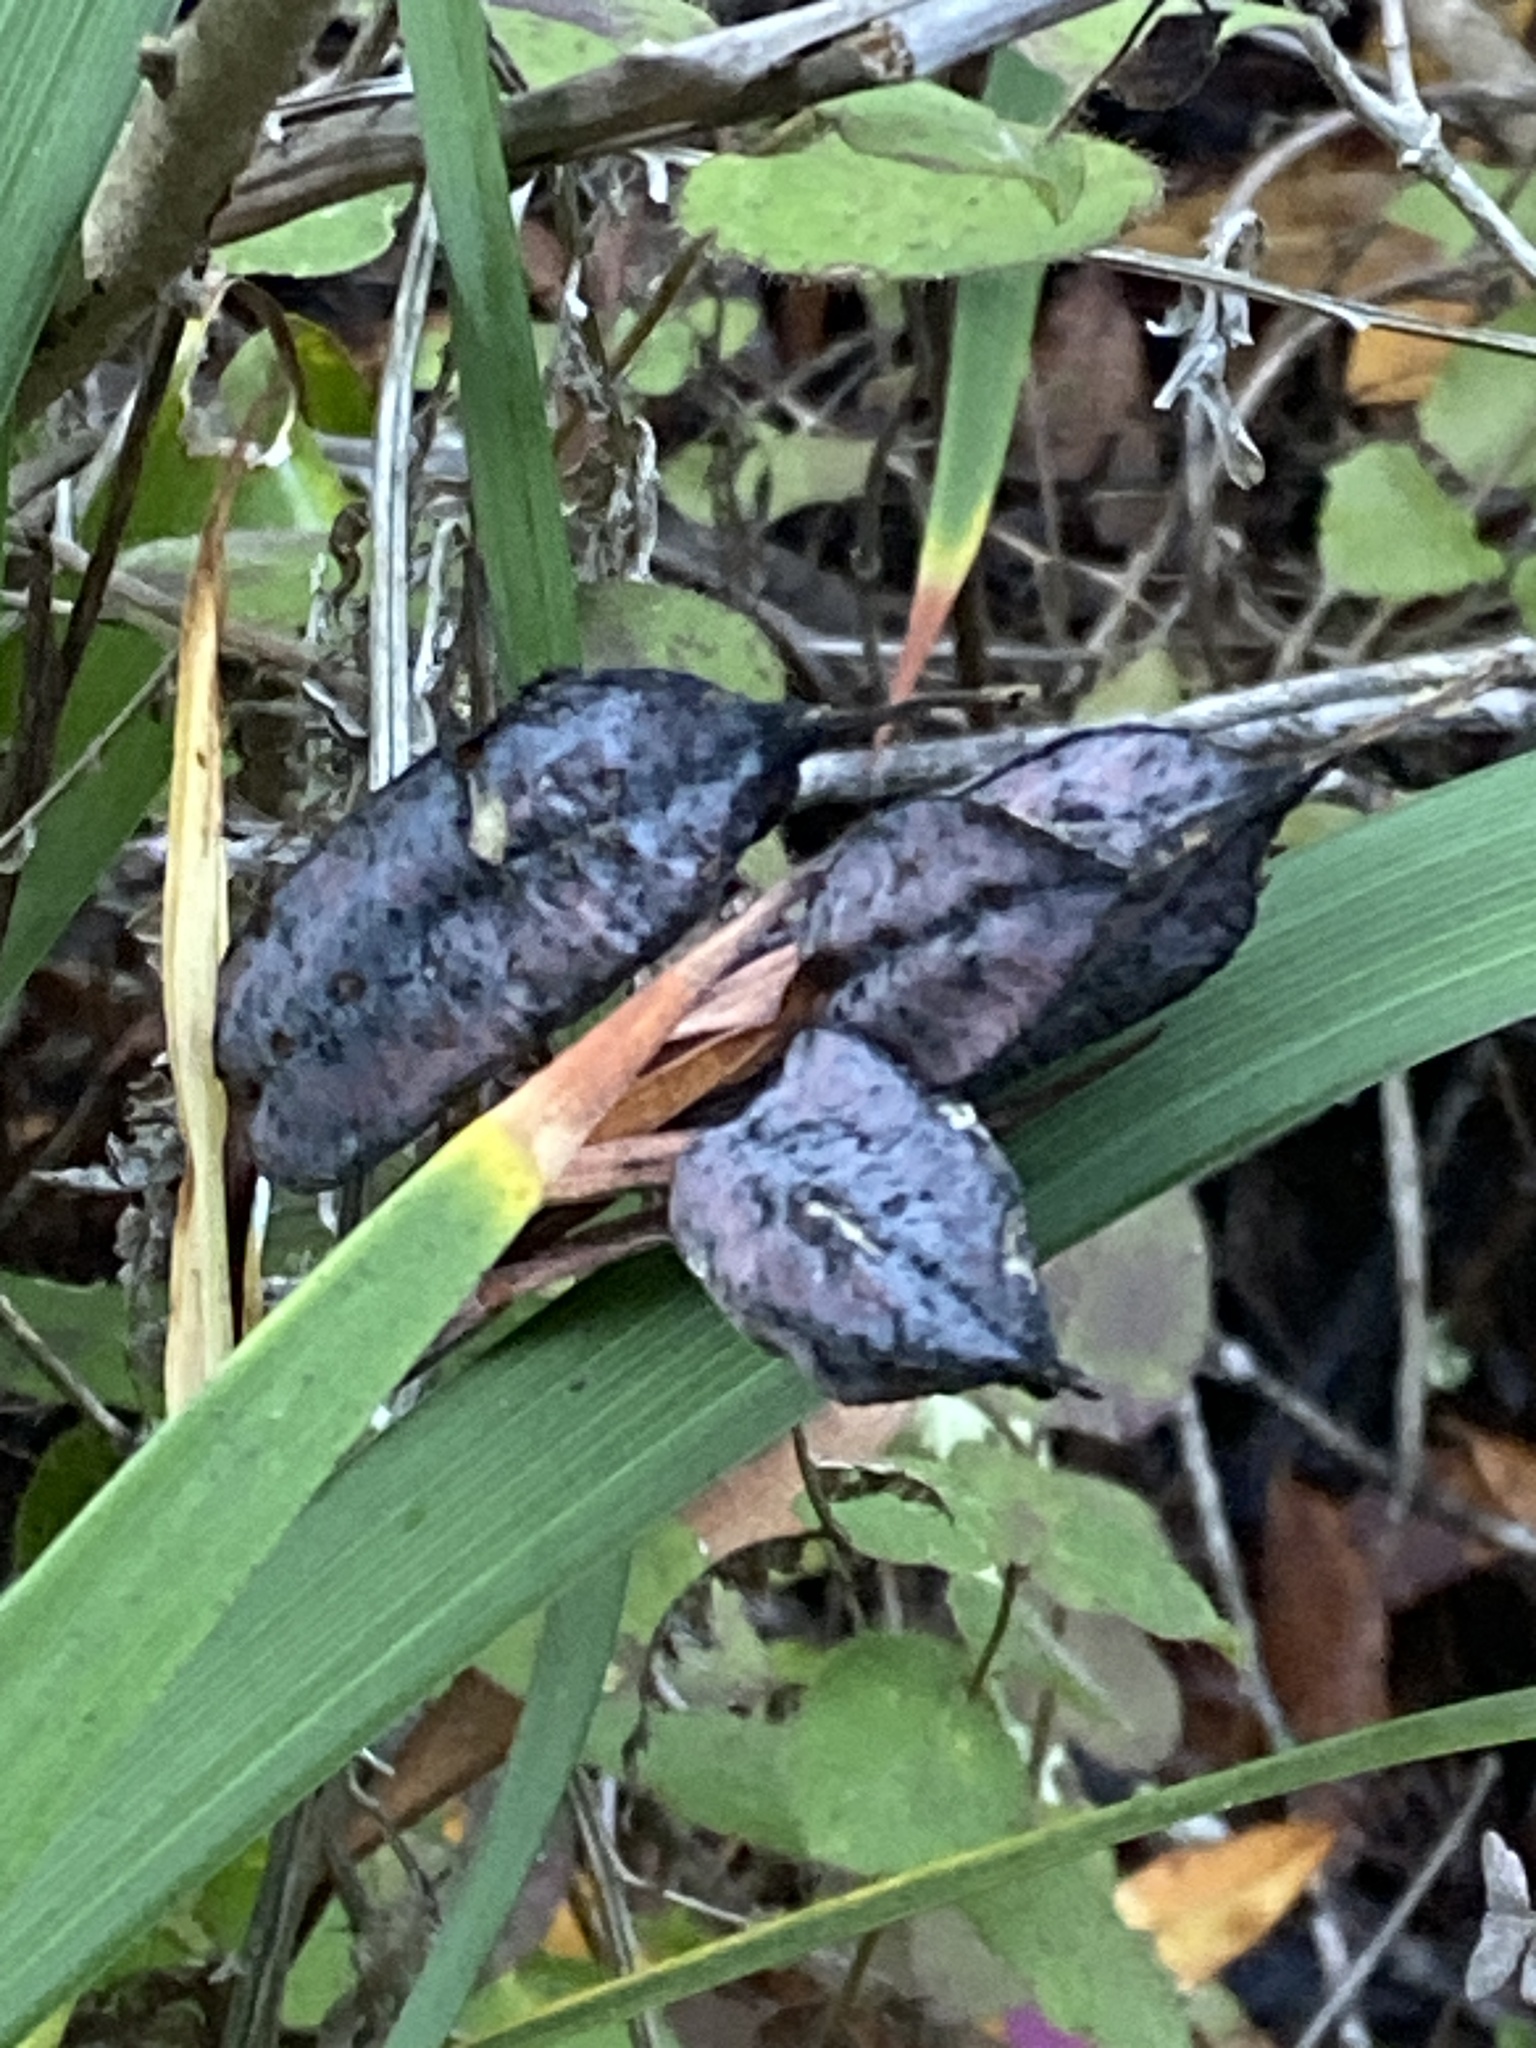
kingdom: Plantae
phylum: Tracheophyta
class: Liliopsida
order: Asparagales
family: Iridaceae
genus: Iris
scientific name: Iris foetidissima
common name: Stinking iris
